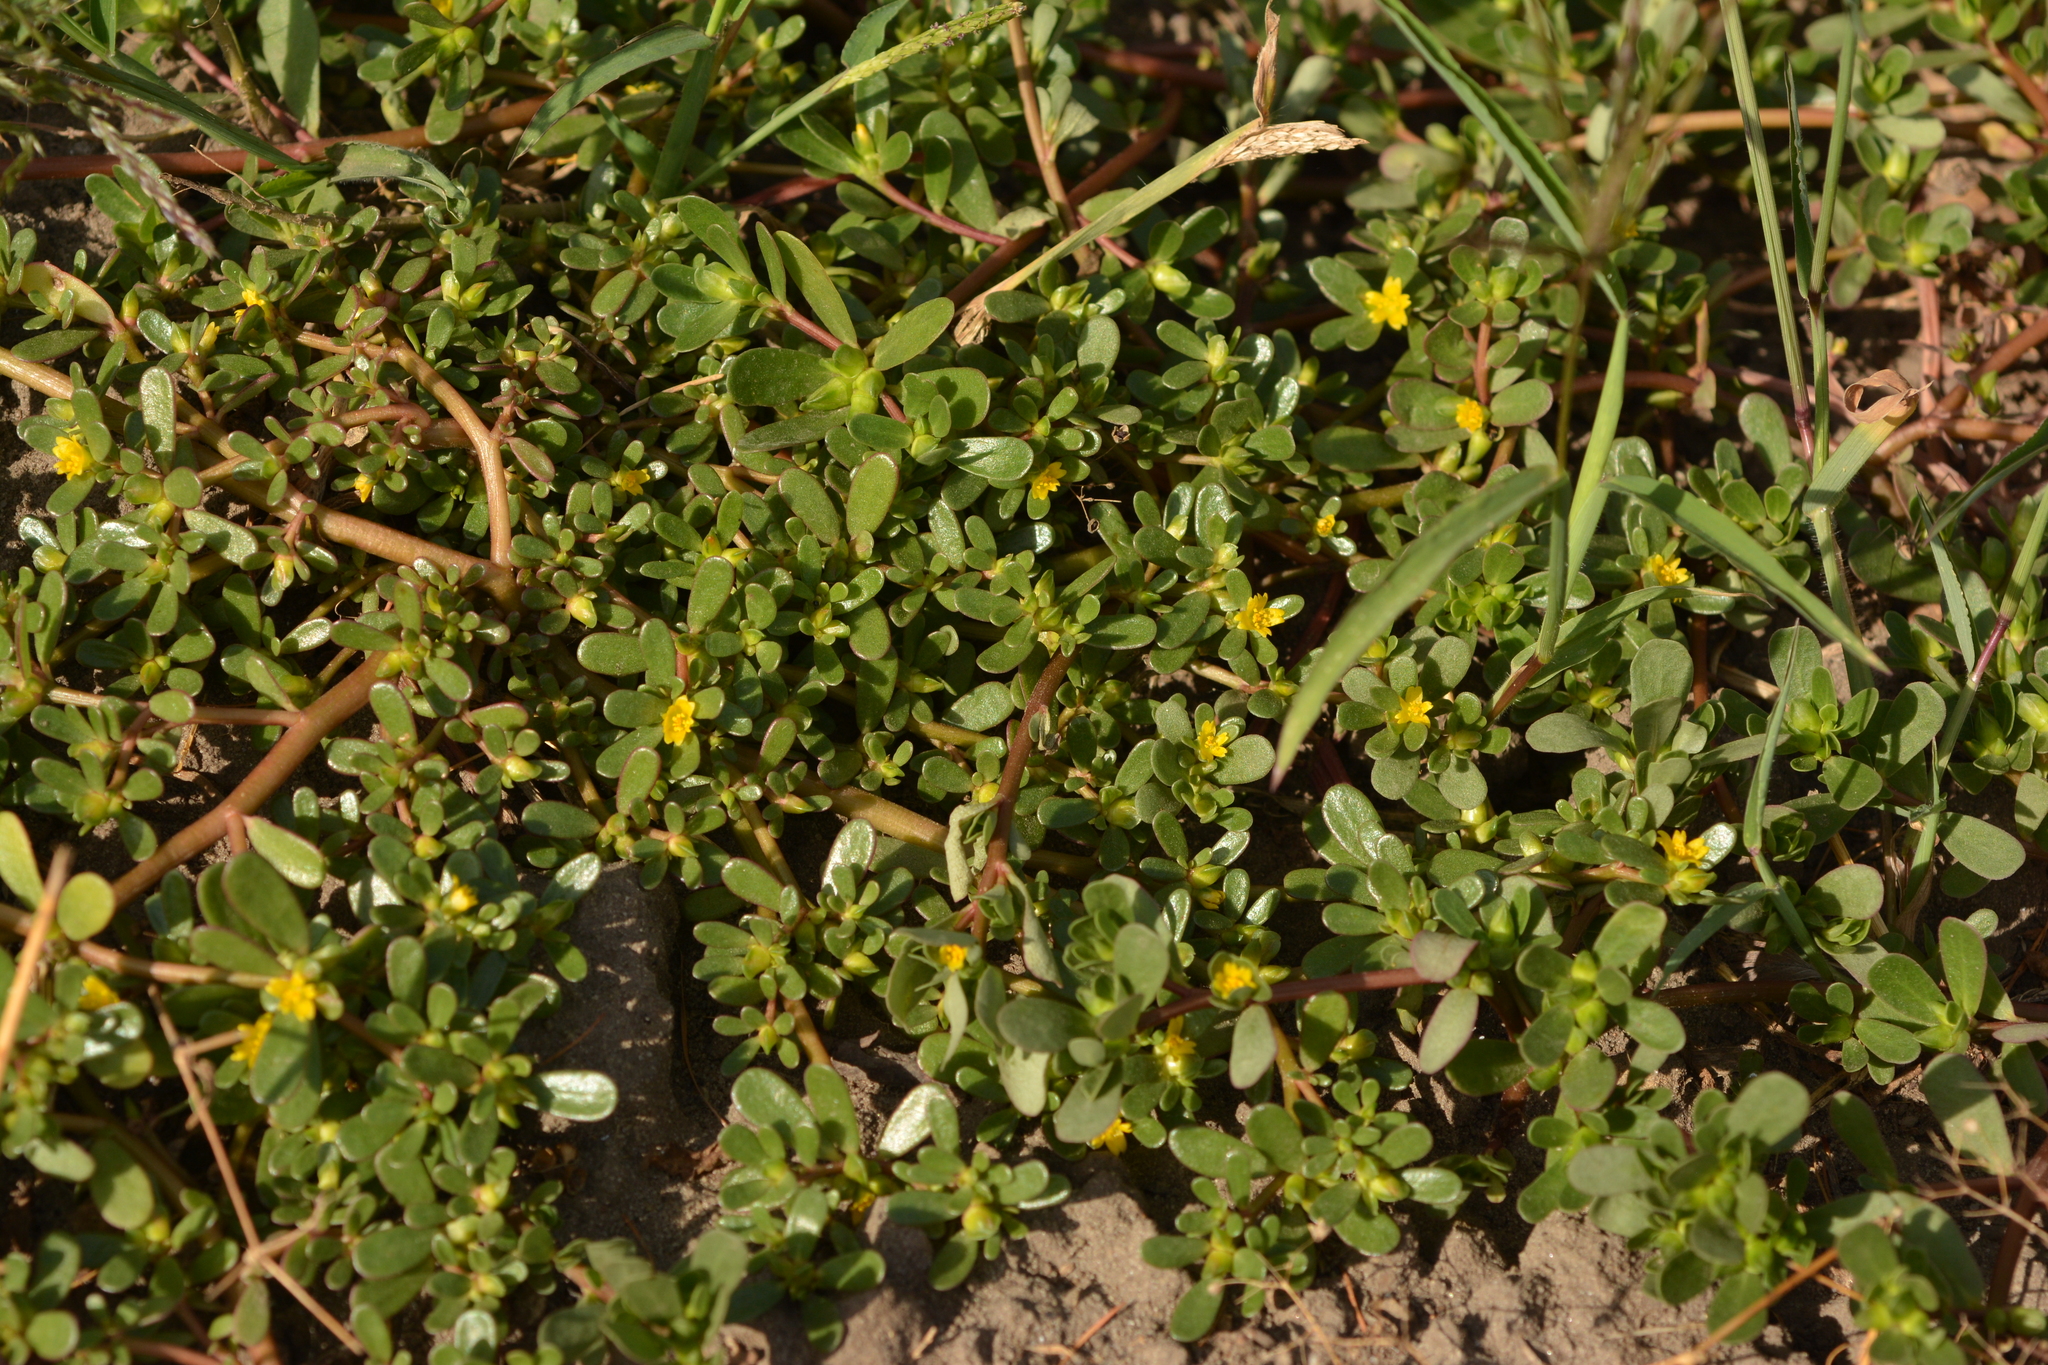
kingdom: Plantae
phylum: Tracheophyta
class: Magnoliopsida
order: Caryophyllales
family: Portulacaceae
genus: Portulaca
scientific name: Portulaca oleracea
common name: Common purslane
